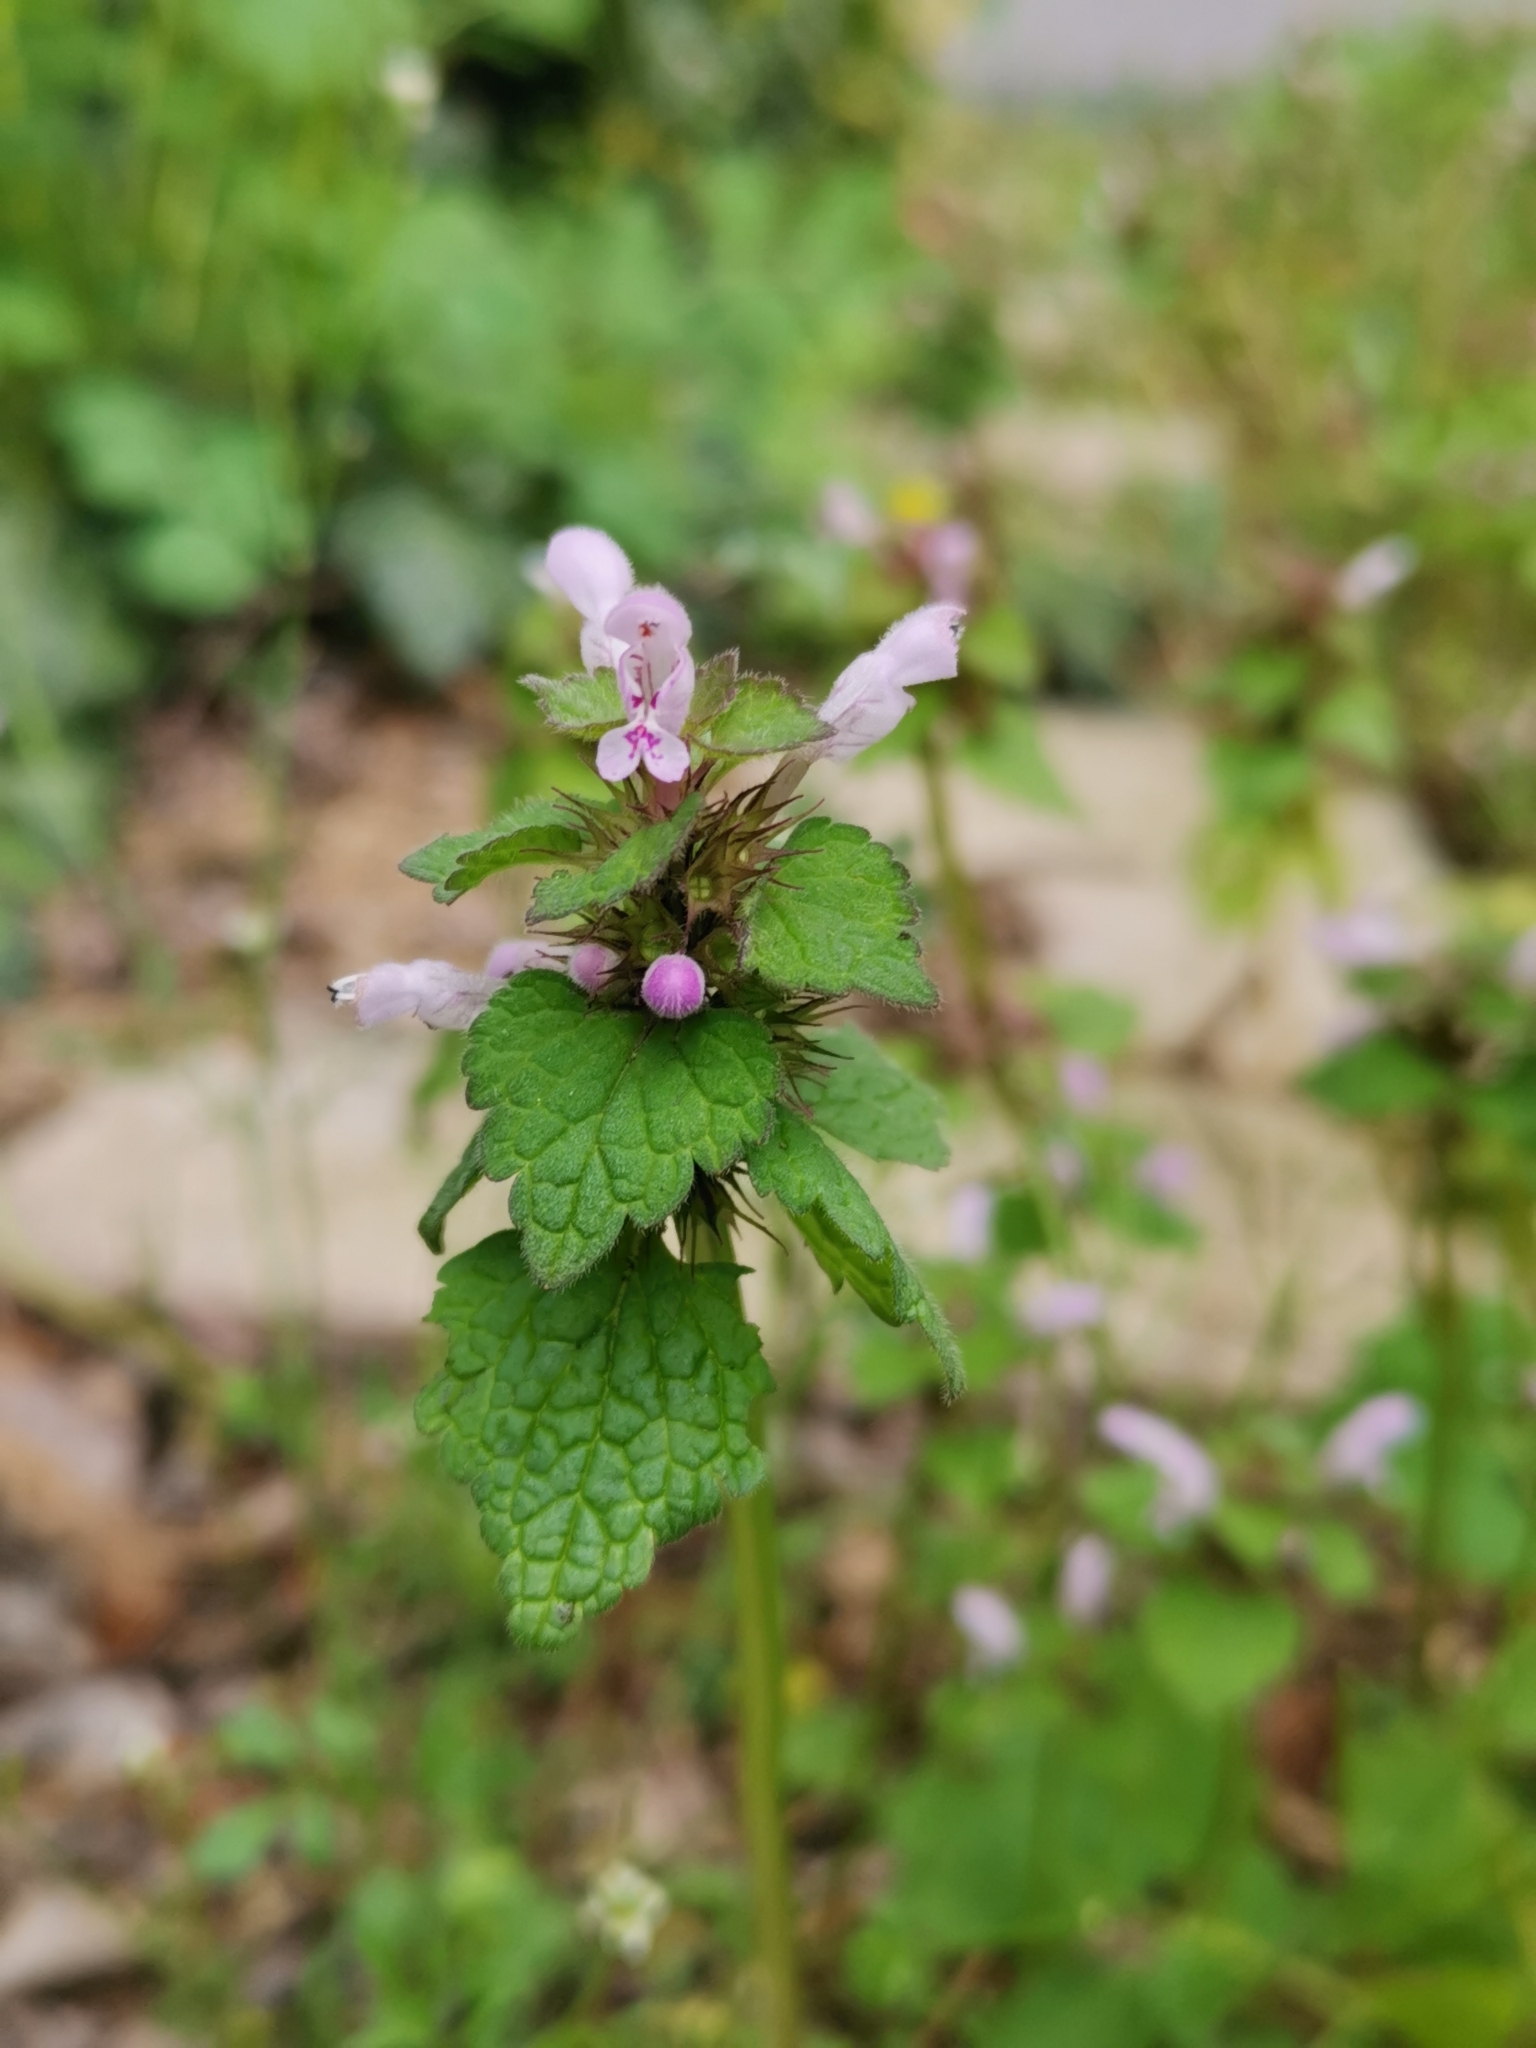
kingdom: Plantae
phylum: Tracheophyta
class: Magnoliopsida
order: Lamiales
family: Lamiaceae
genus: Lamium
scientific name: Lamium purpureum
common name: Red dead-nettle
